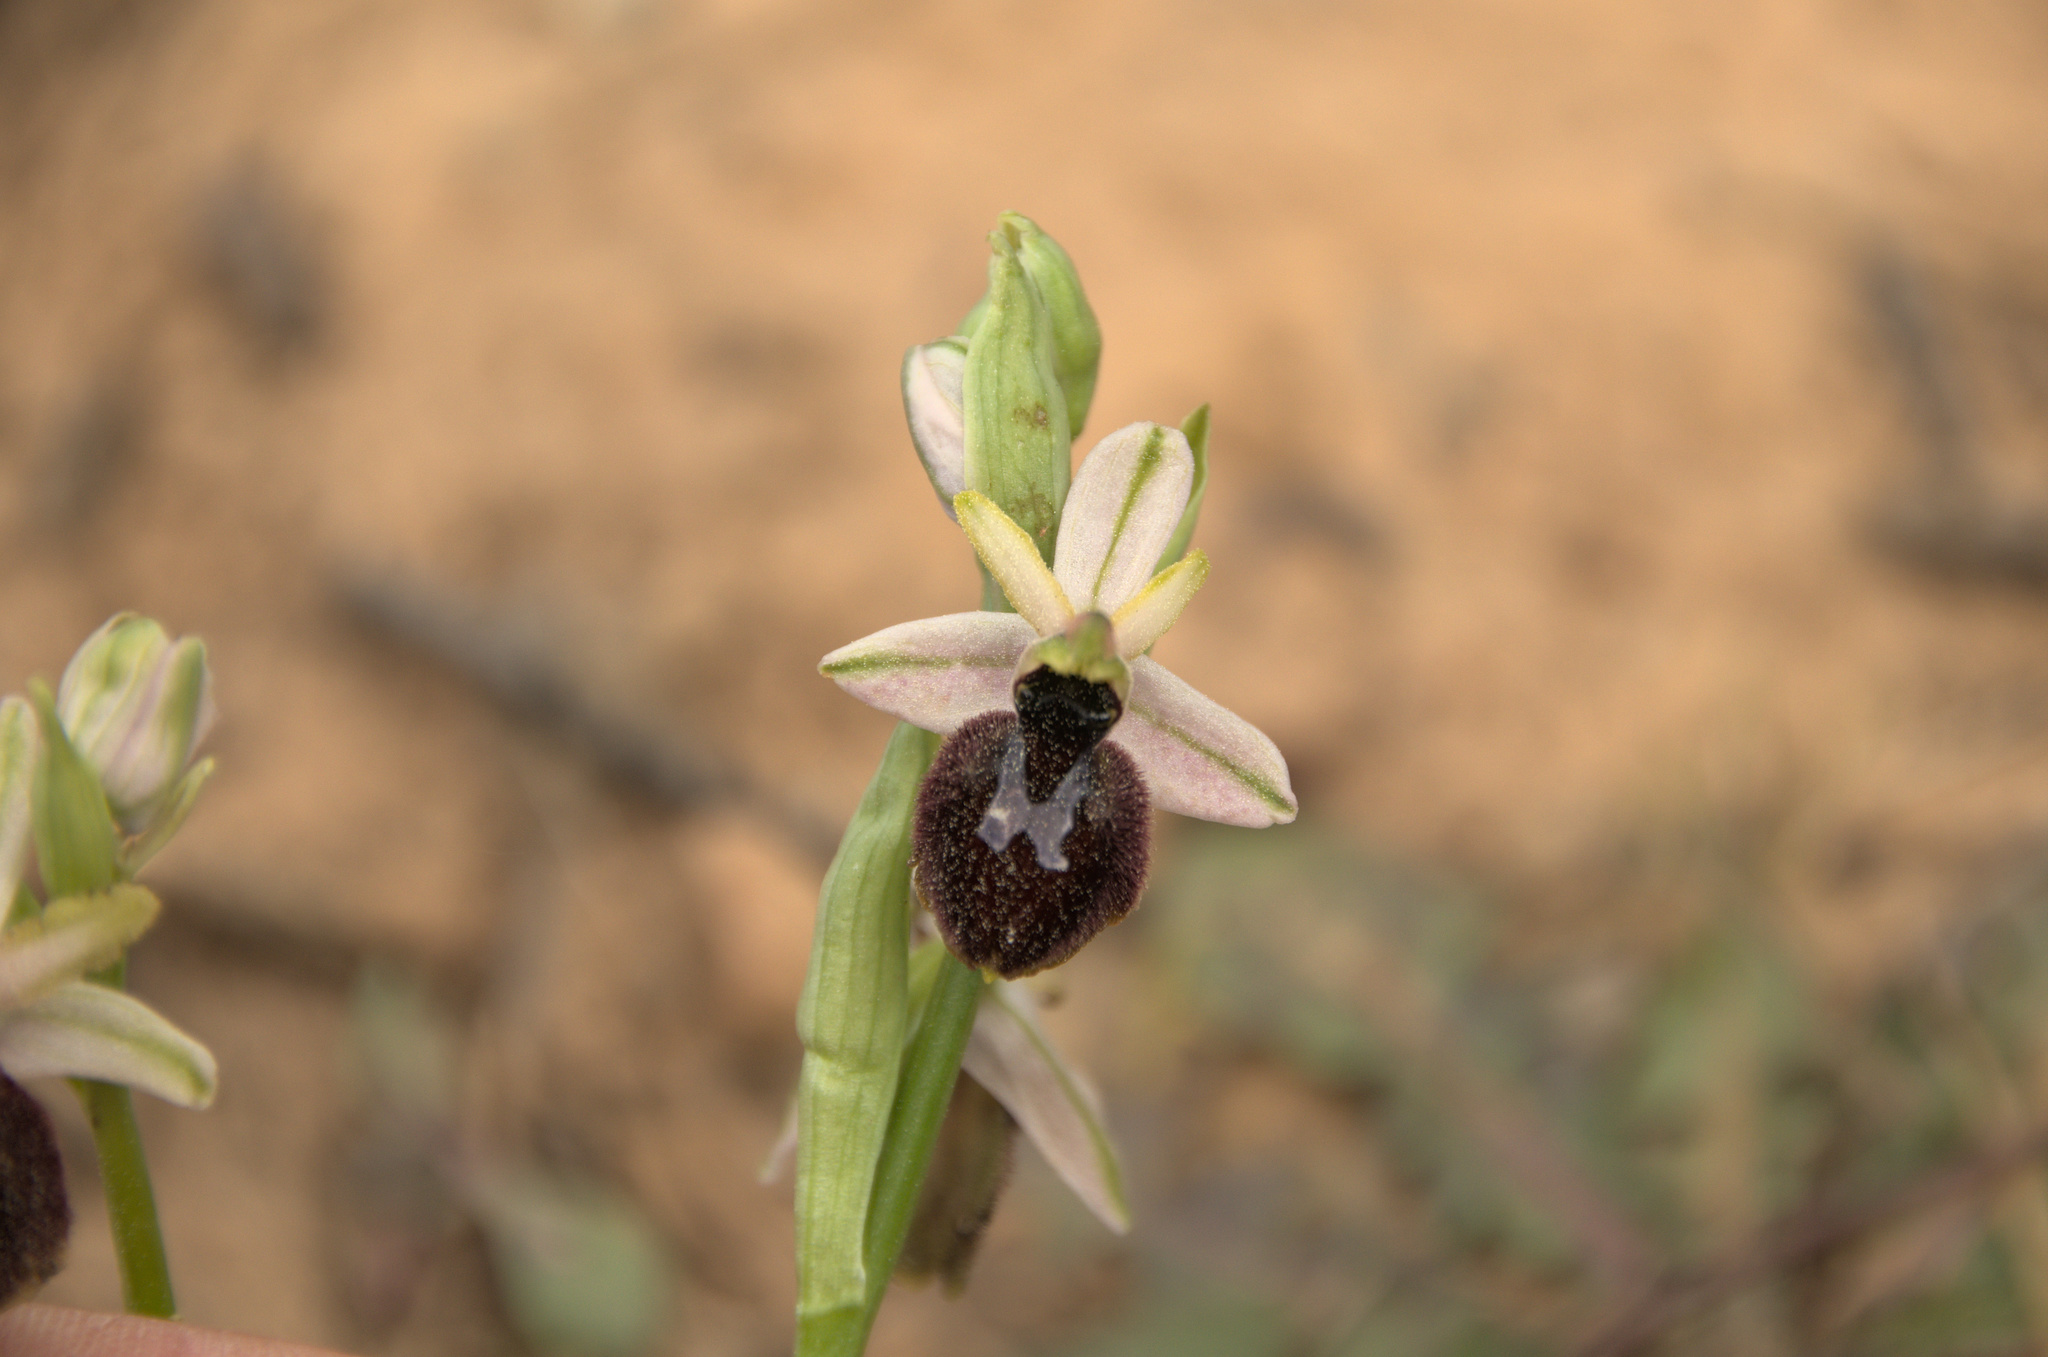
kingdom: Plantae
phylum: Tracheophyta
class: Liliopsida
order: Asparagales
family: Orchidaceae
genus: Ophrys
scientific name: Ophrys arachnitiformis
